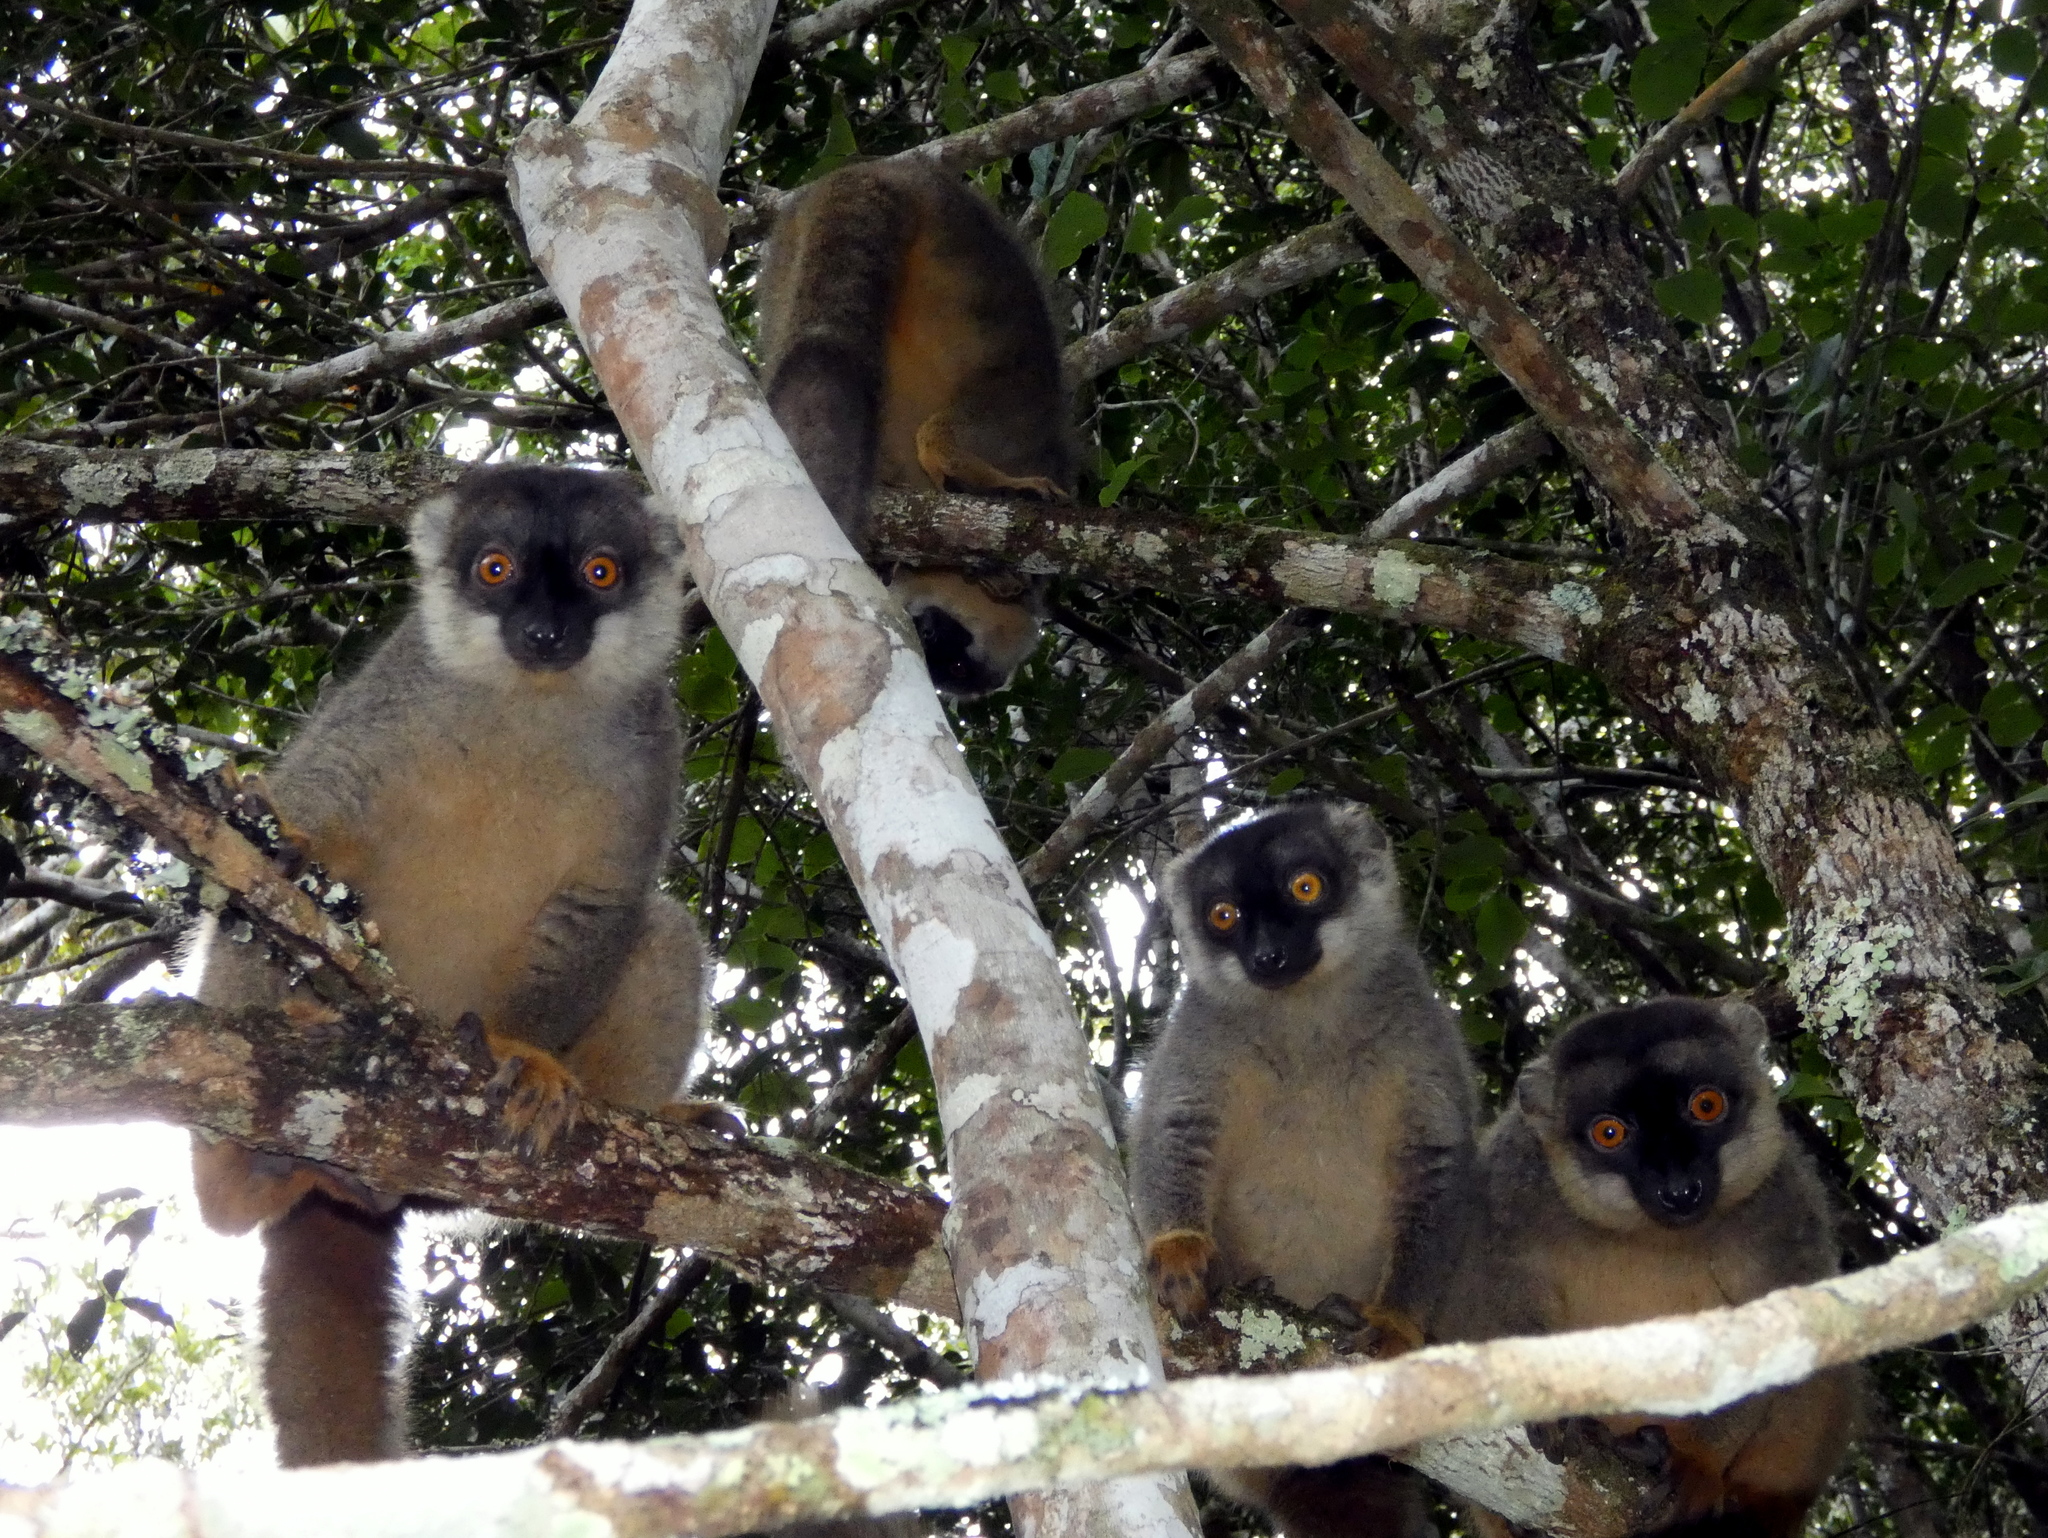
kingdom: Animalia
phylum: Chordata
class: Mammalia
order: Primates
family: Lemuridae
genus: Eulemur
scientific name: Eulemur fulvus
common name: Brown lemur
